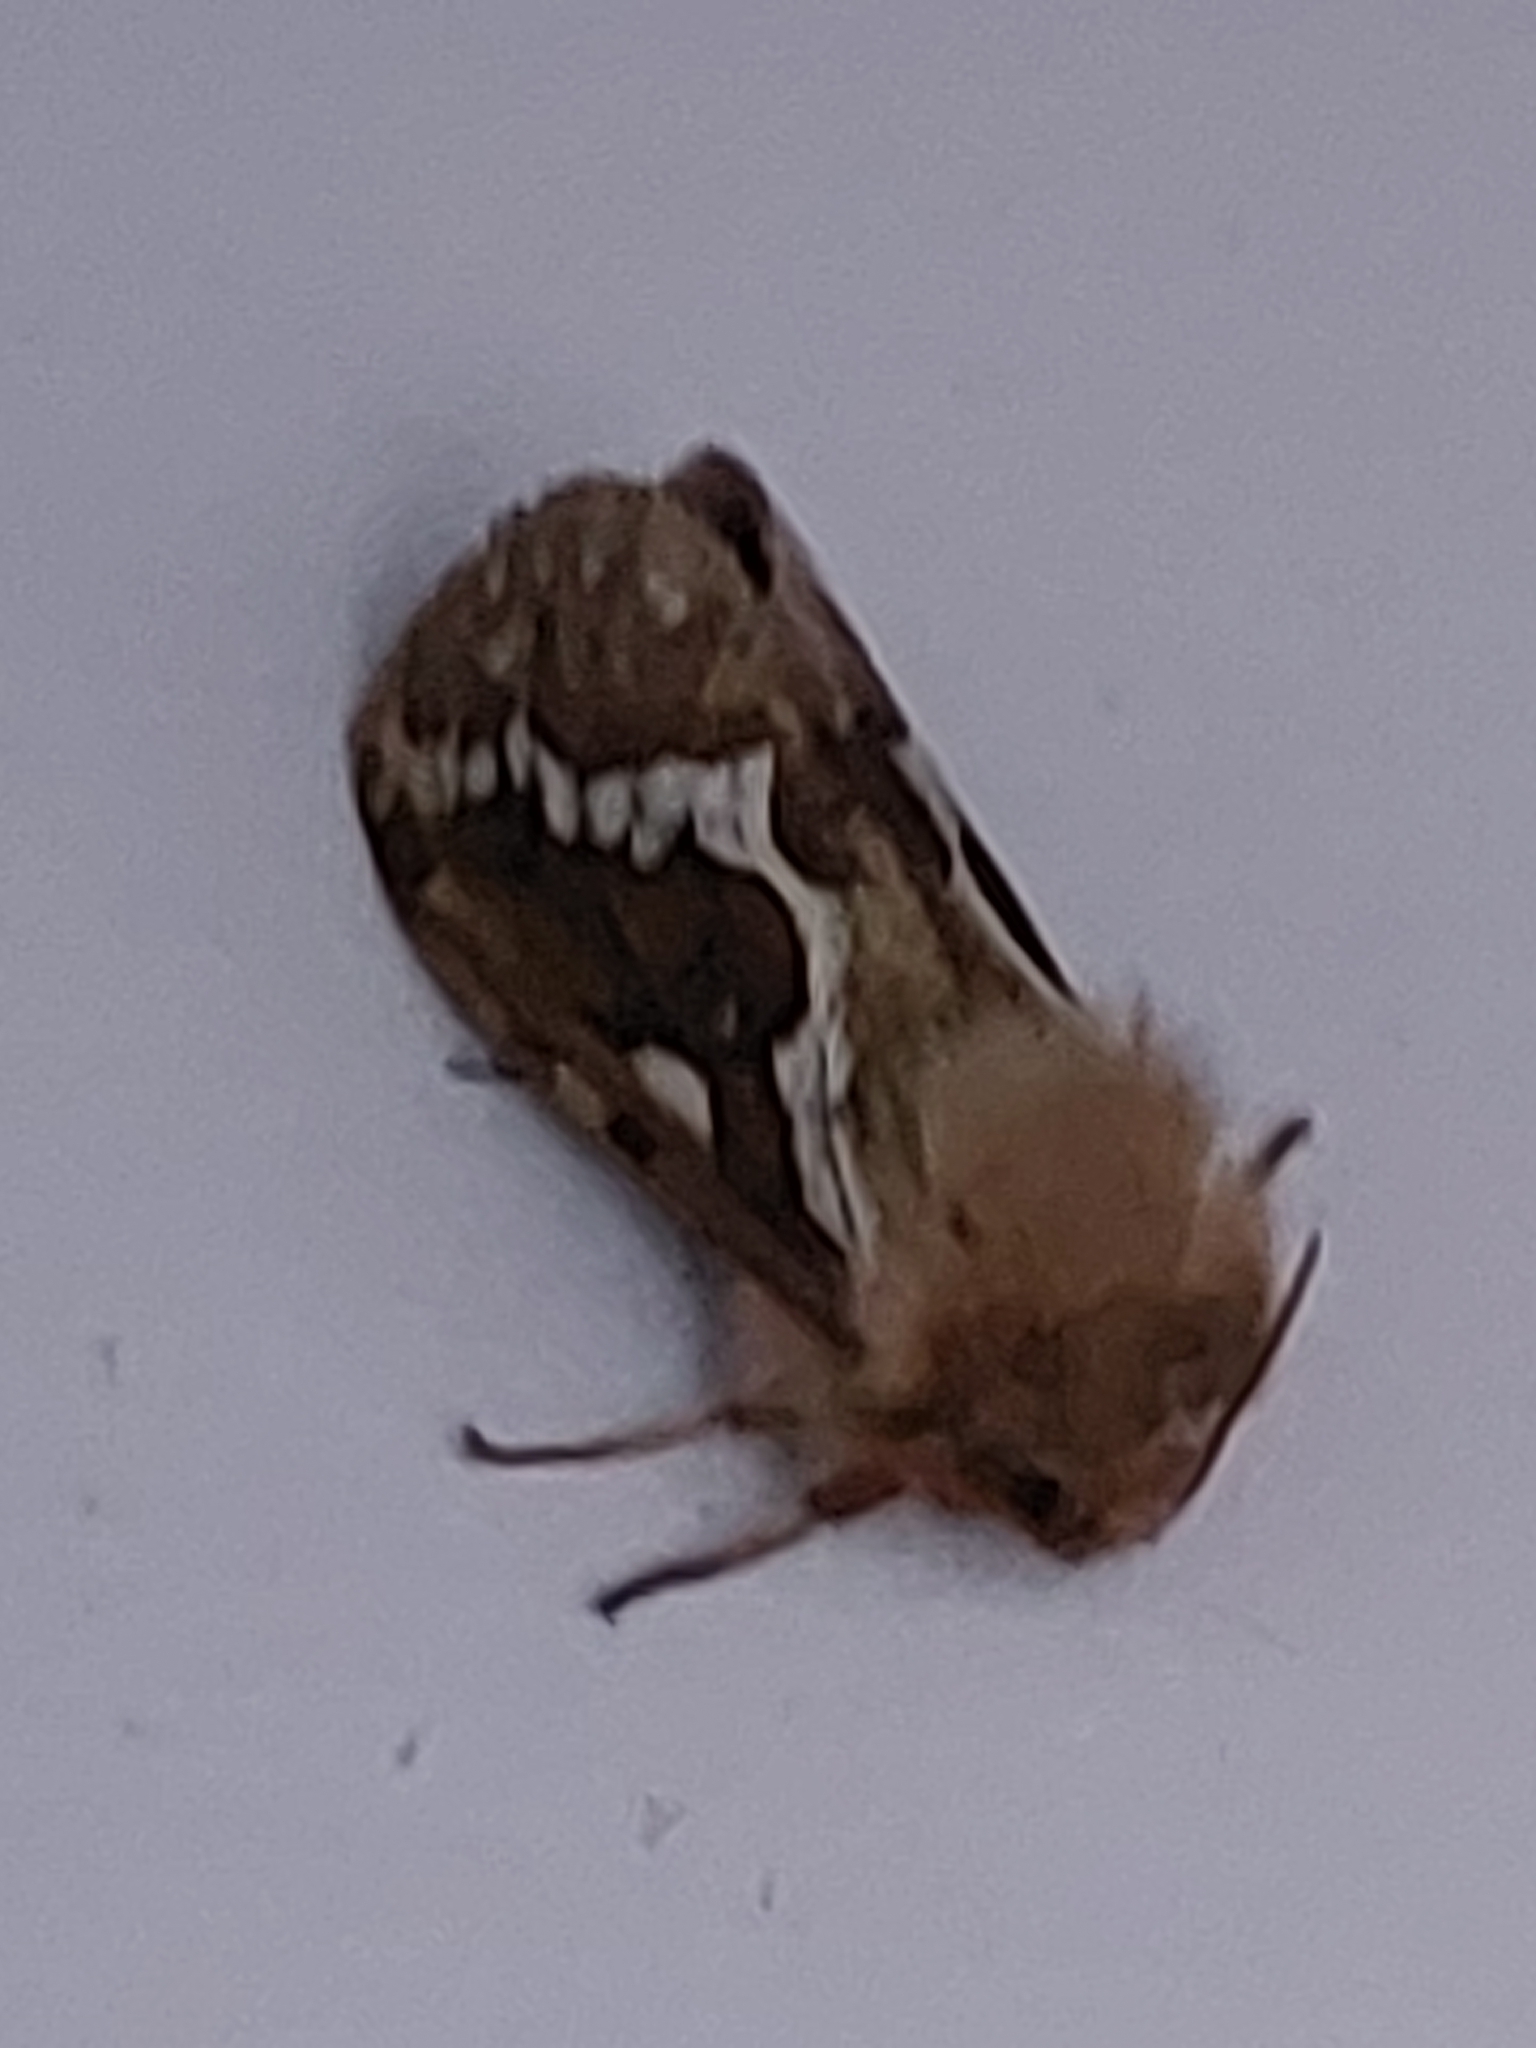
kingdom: Animalia
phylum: Arthropoda
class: Insecta
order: Lepidoptera
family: Hepialidae
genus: Korscheltellus
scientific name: Korscheltellus lupulina
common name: Common swift
